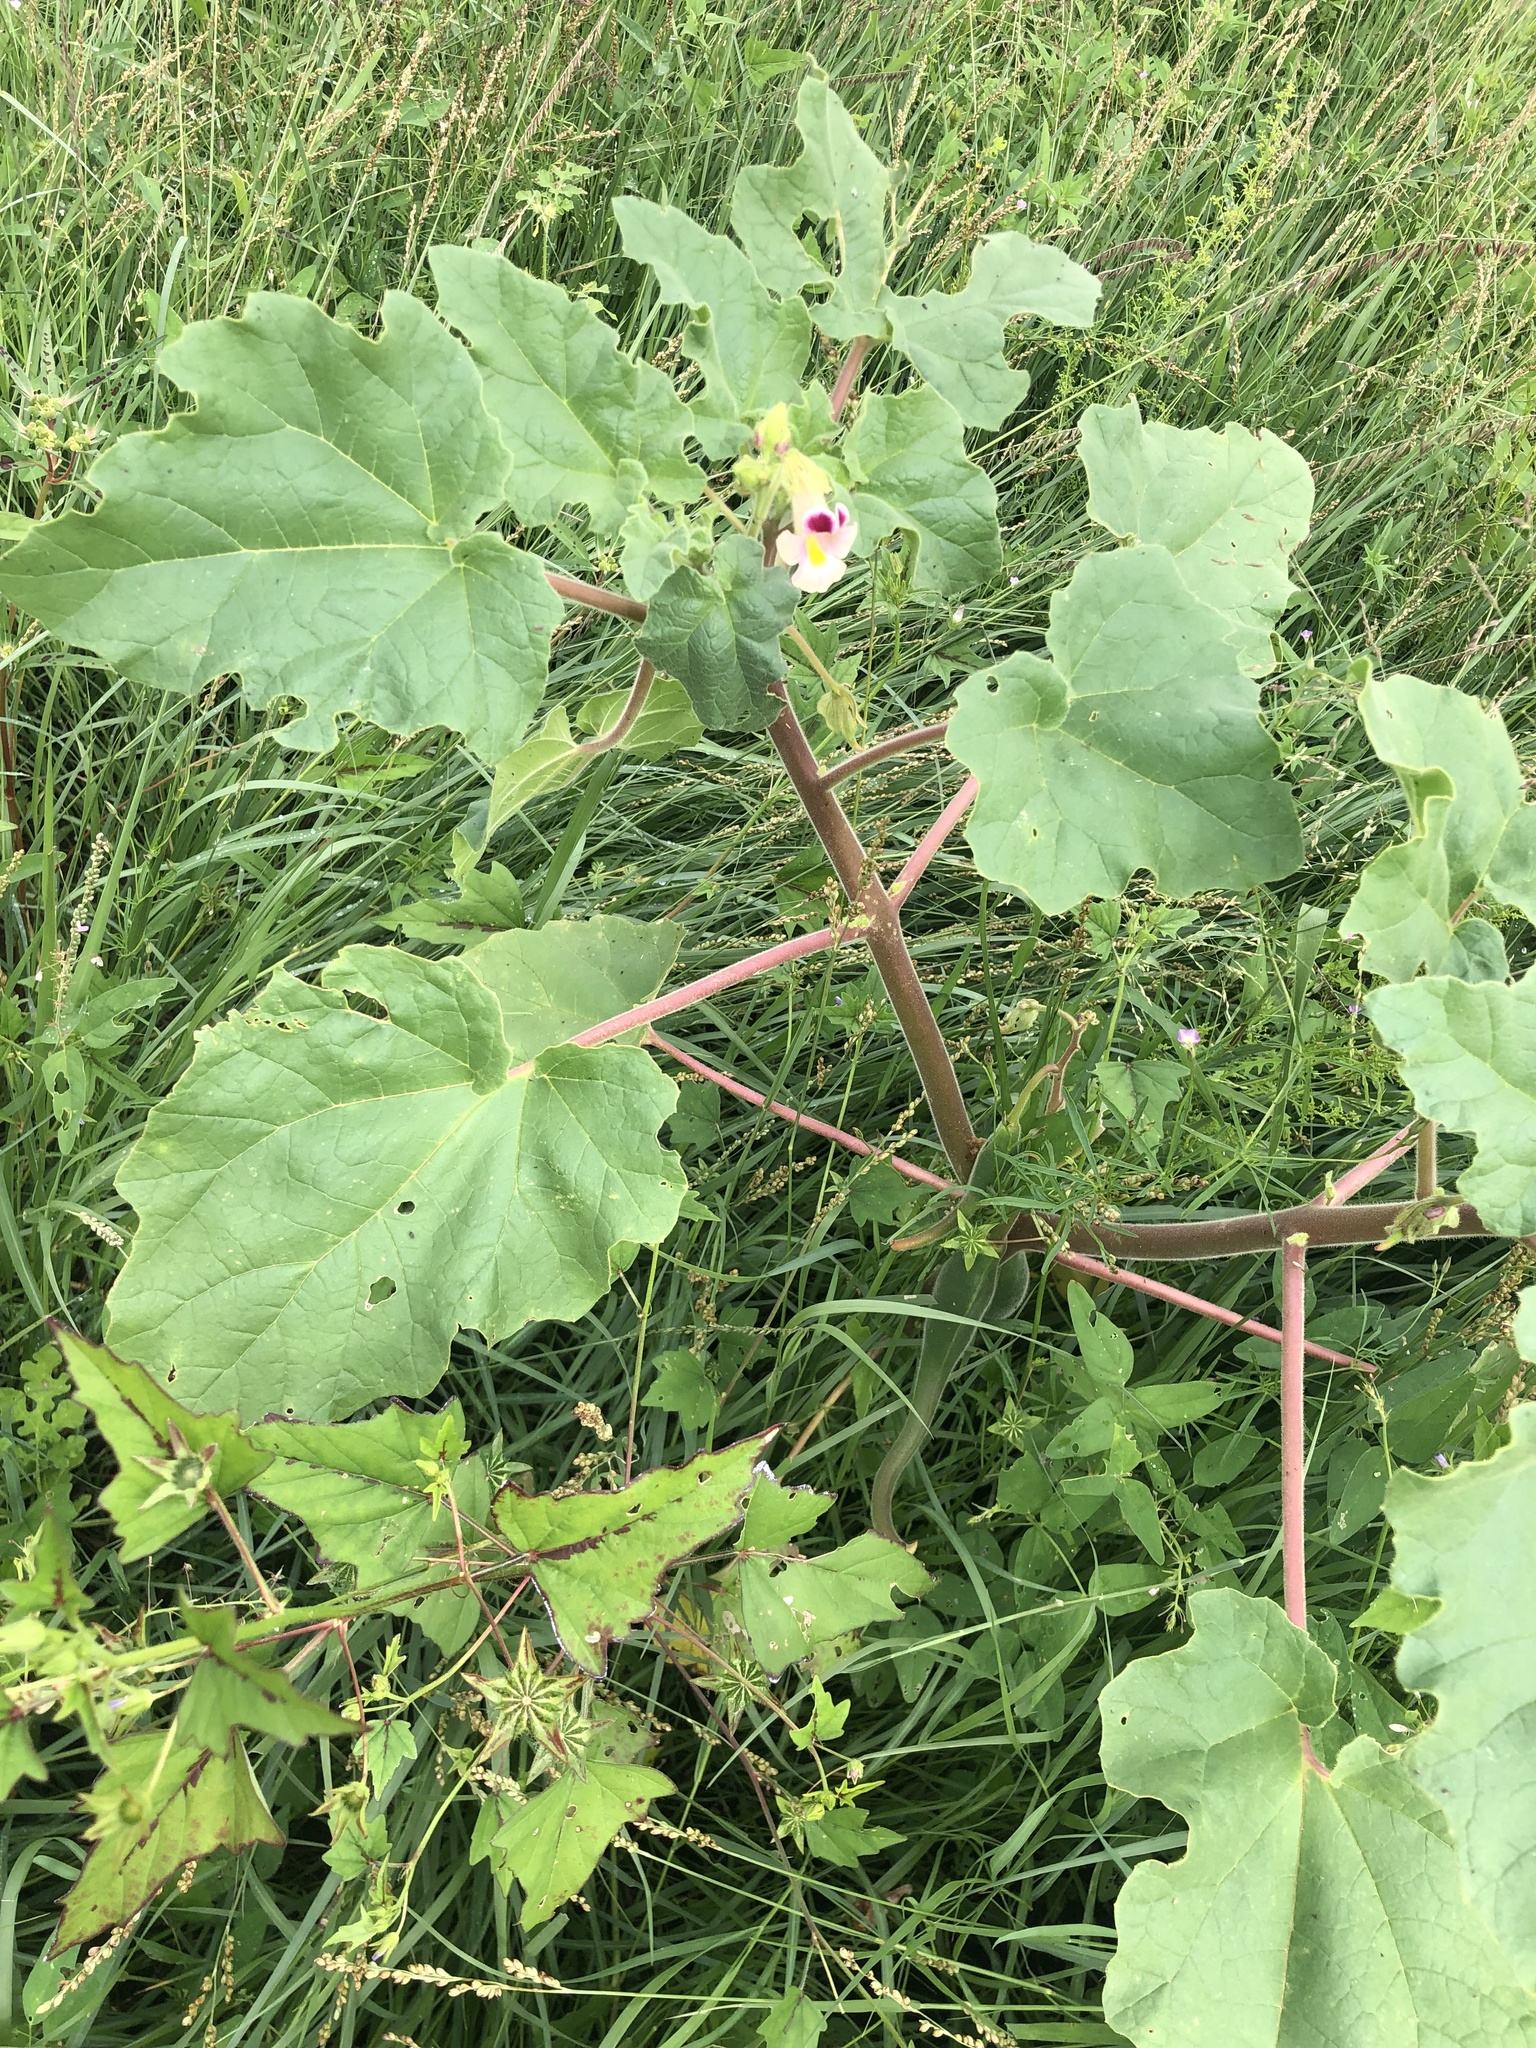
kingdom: Plantae
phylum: Tracheophyta
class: Magnoliopsida
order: Lamiales
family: Martyniaceae
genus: Proboscidea
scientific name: Proboscidea parviflora
